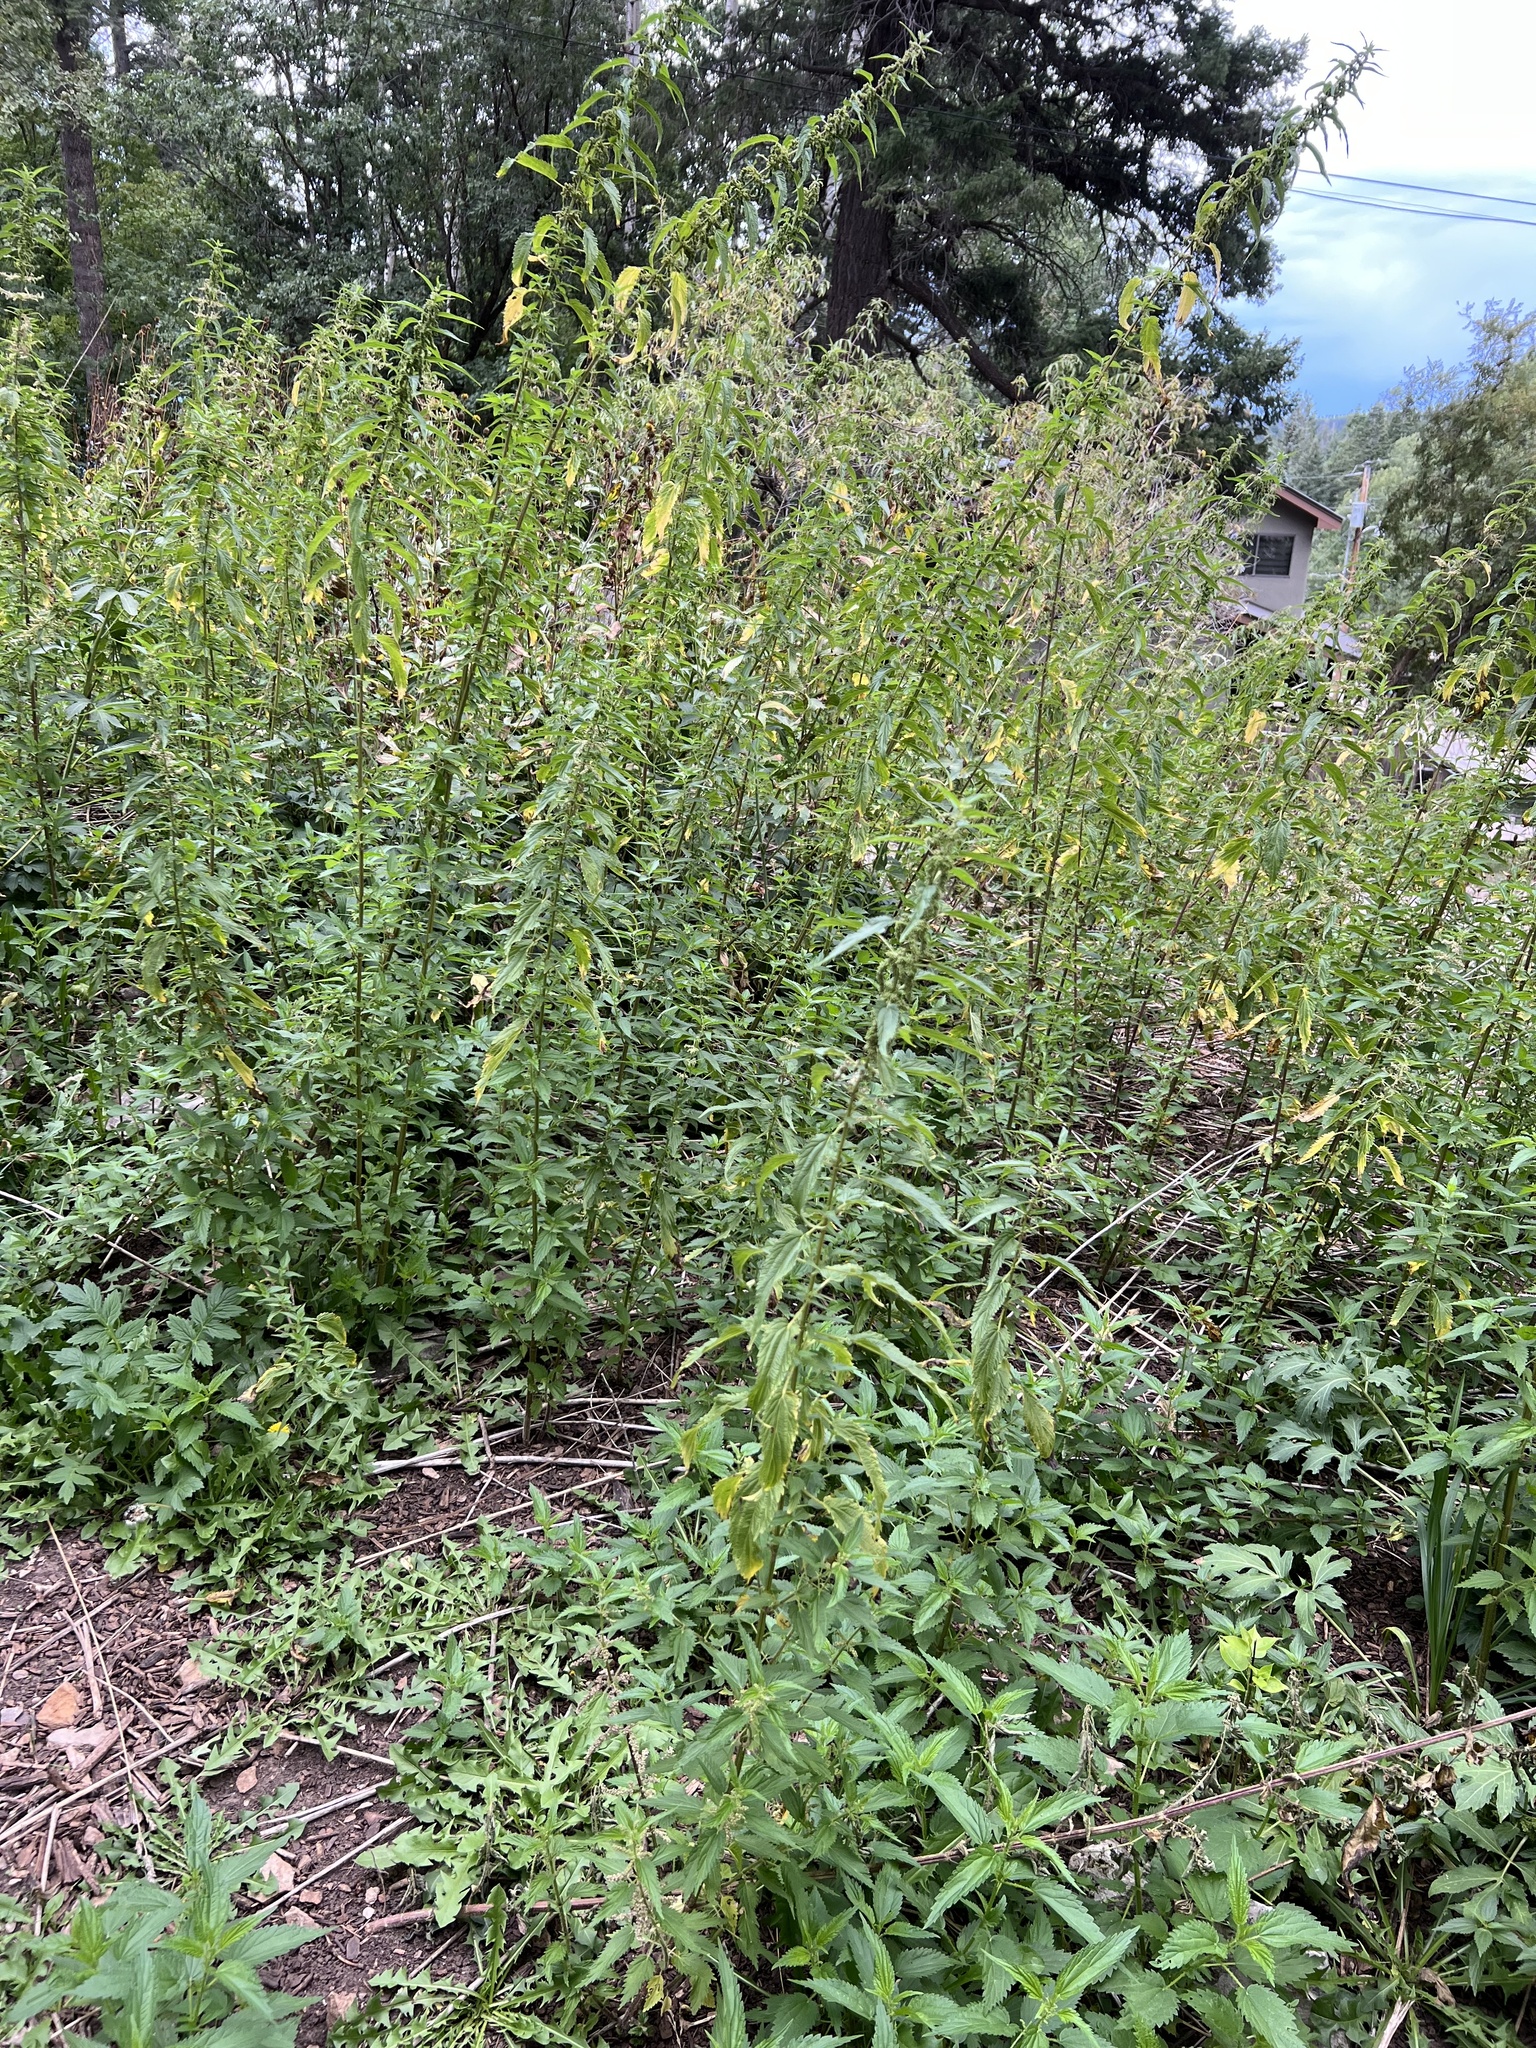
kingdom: Plantae
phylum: Tracheophyta
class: Magnoliopsida
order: Rosales
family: Urticaceae
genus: Urtica
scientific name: Urtica gracilis
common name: Slender stinging nettle
